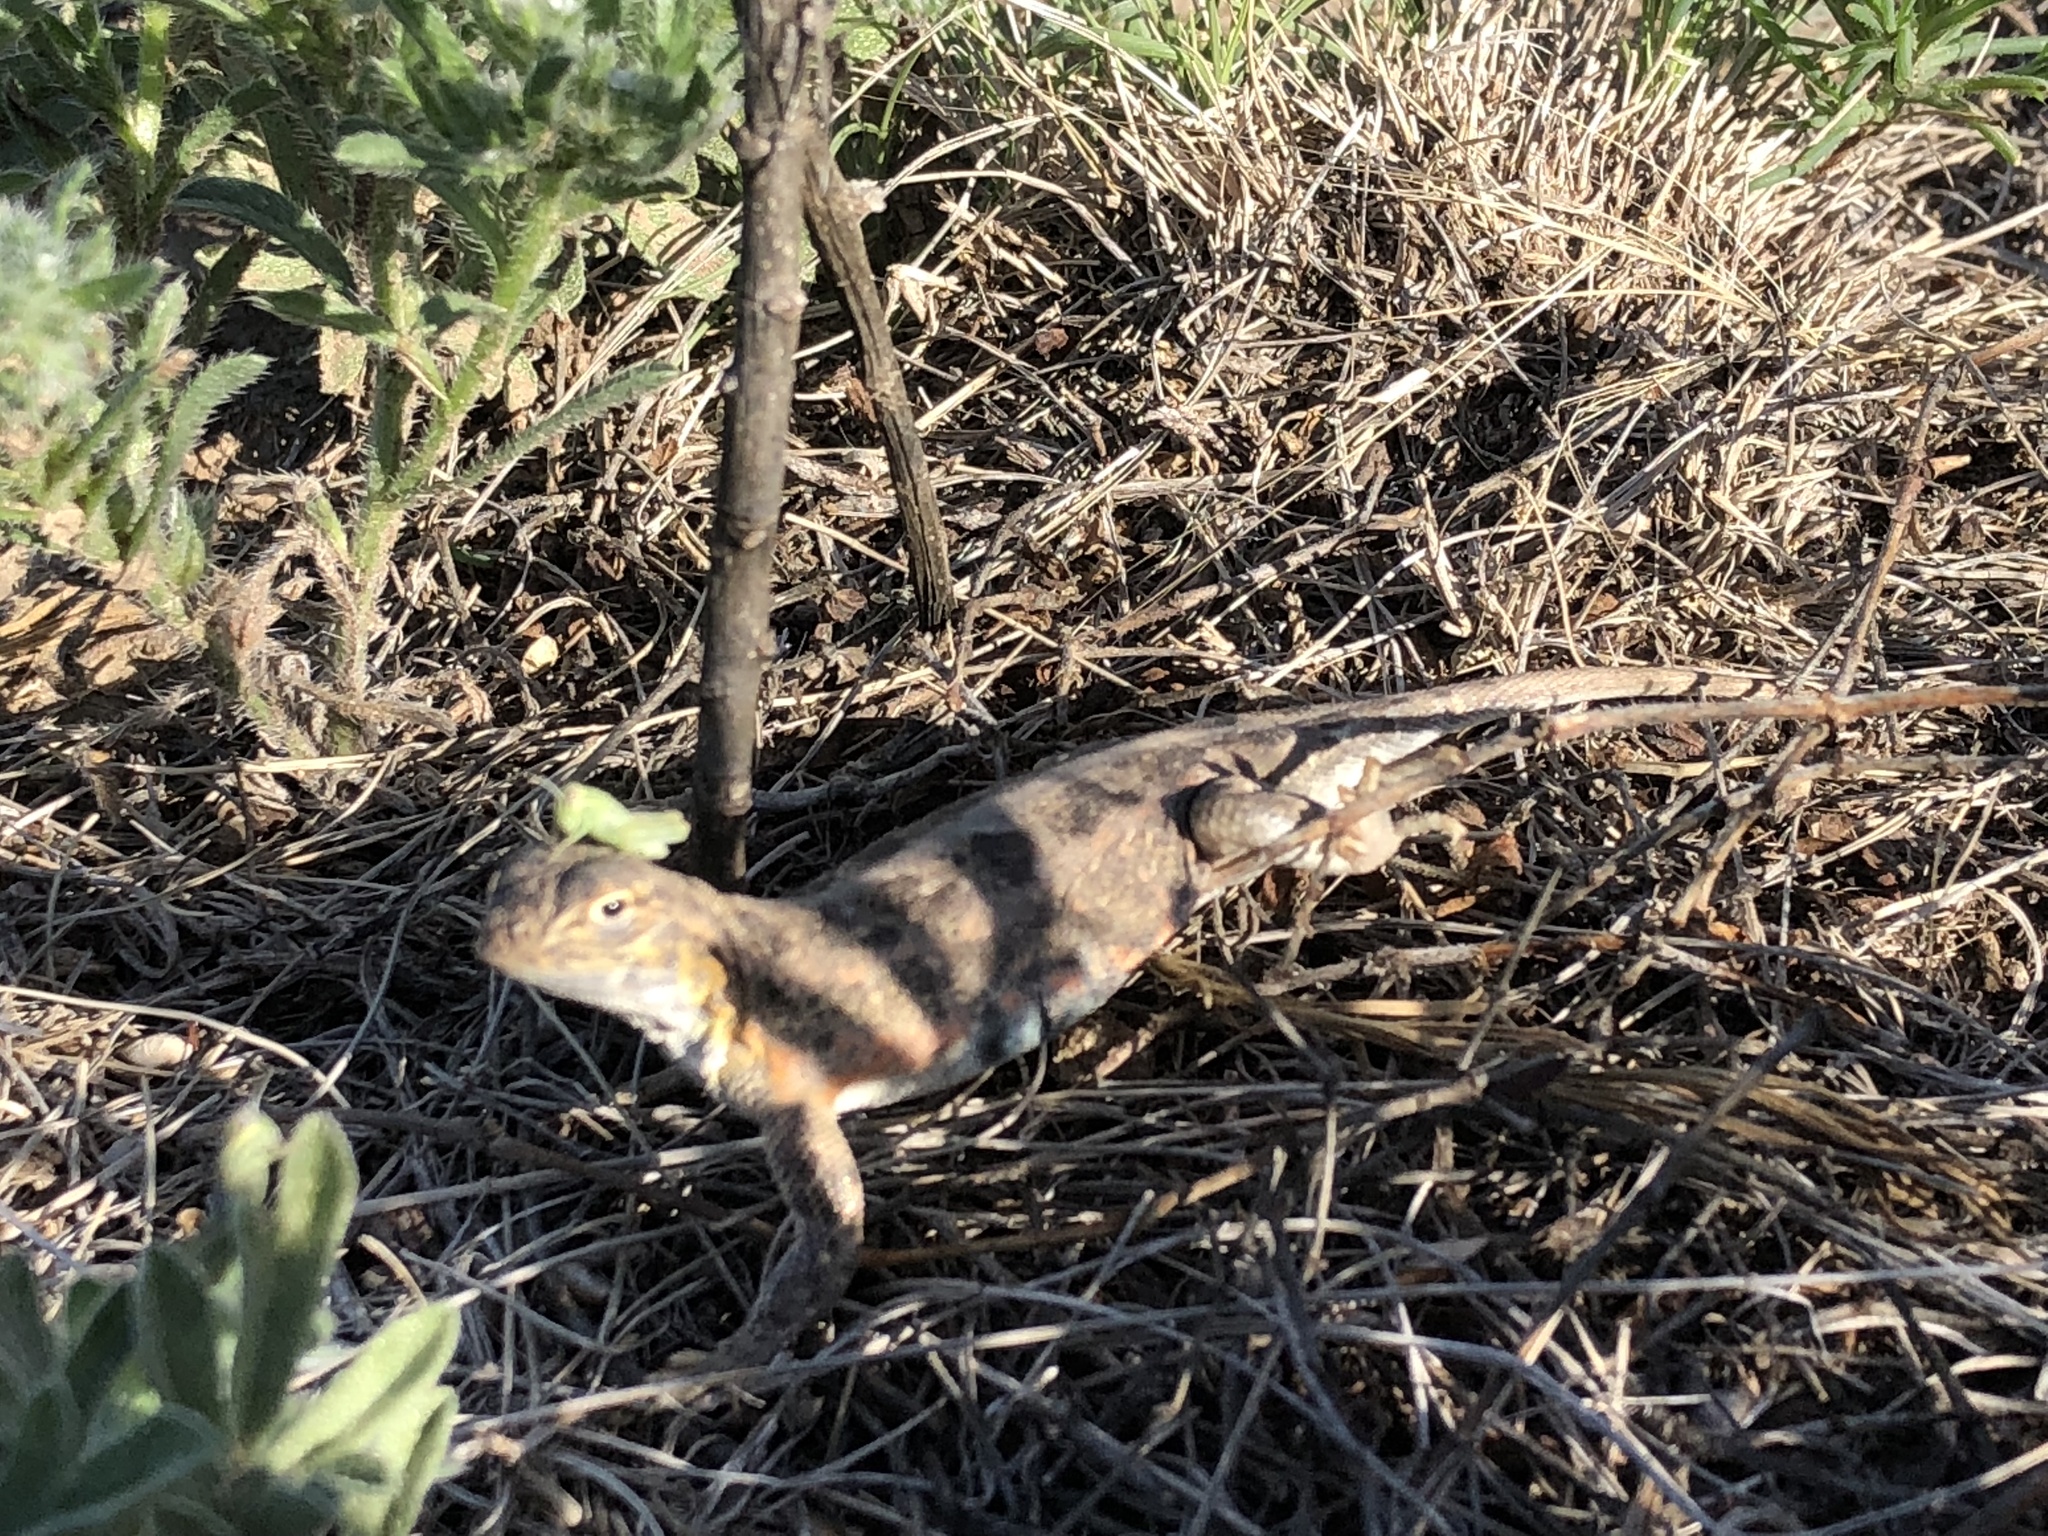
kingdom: Animalia
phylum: Chordata
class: Squamata
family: Phrynosomatidae
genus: Holbrookia
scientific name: Holbrookia maculata
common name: Lesser earless lizard
